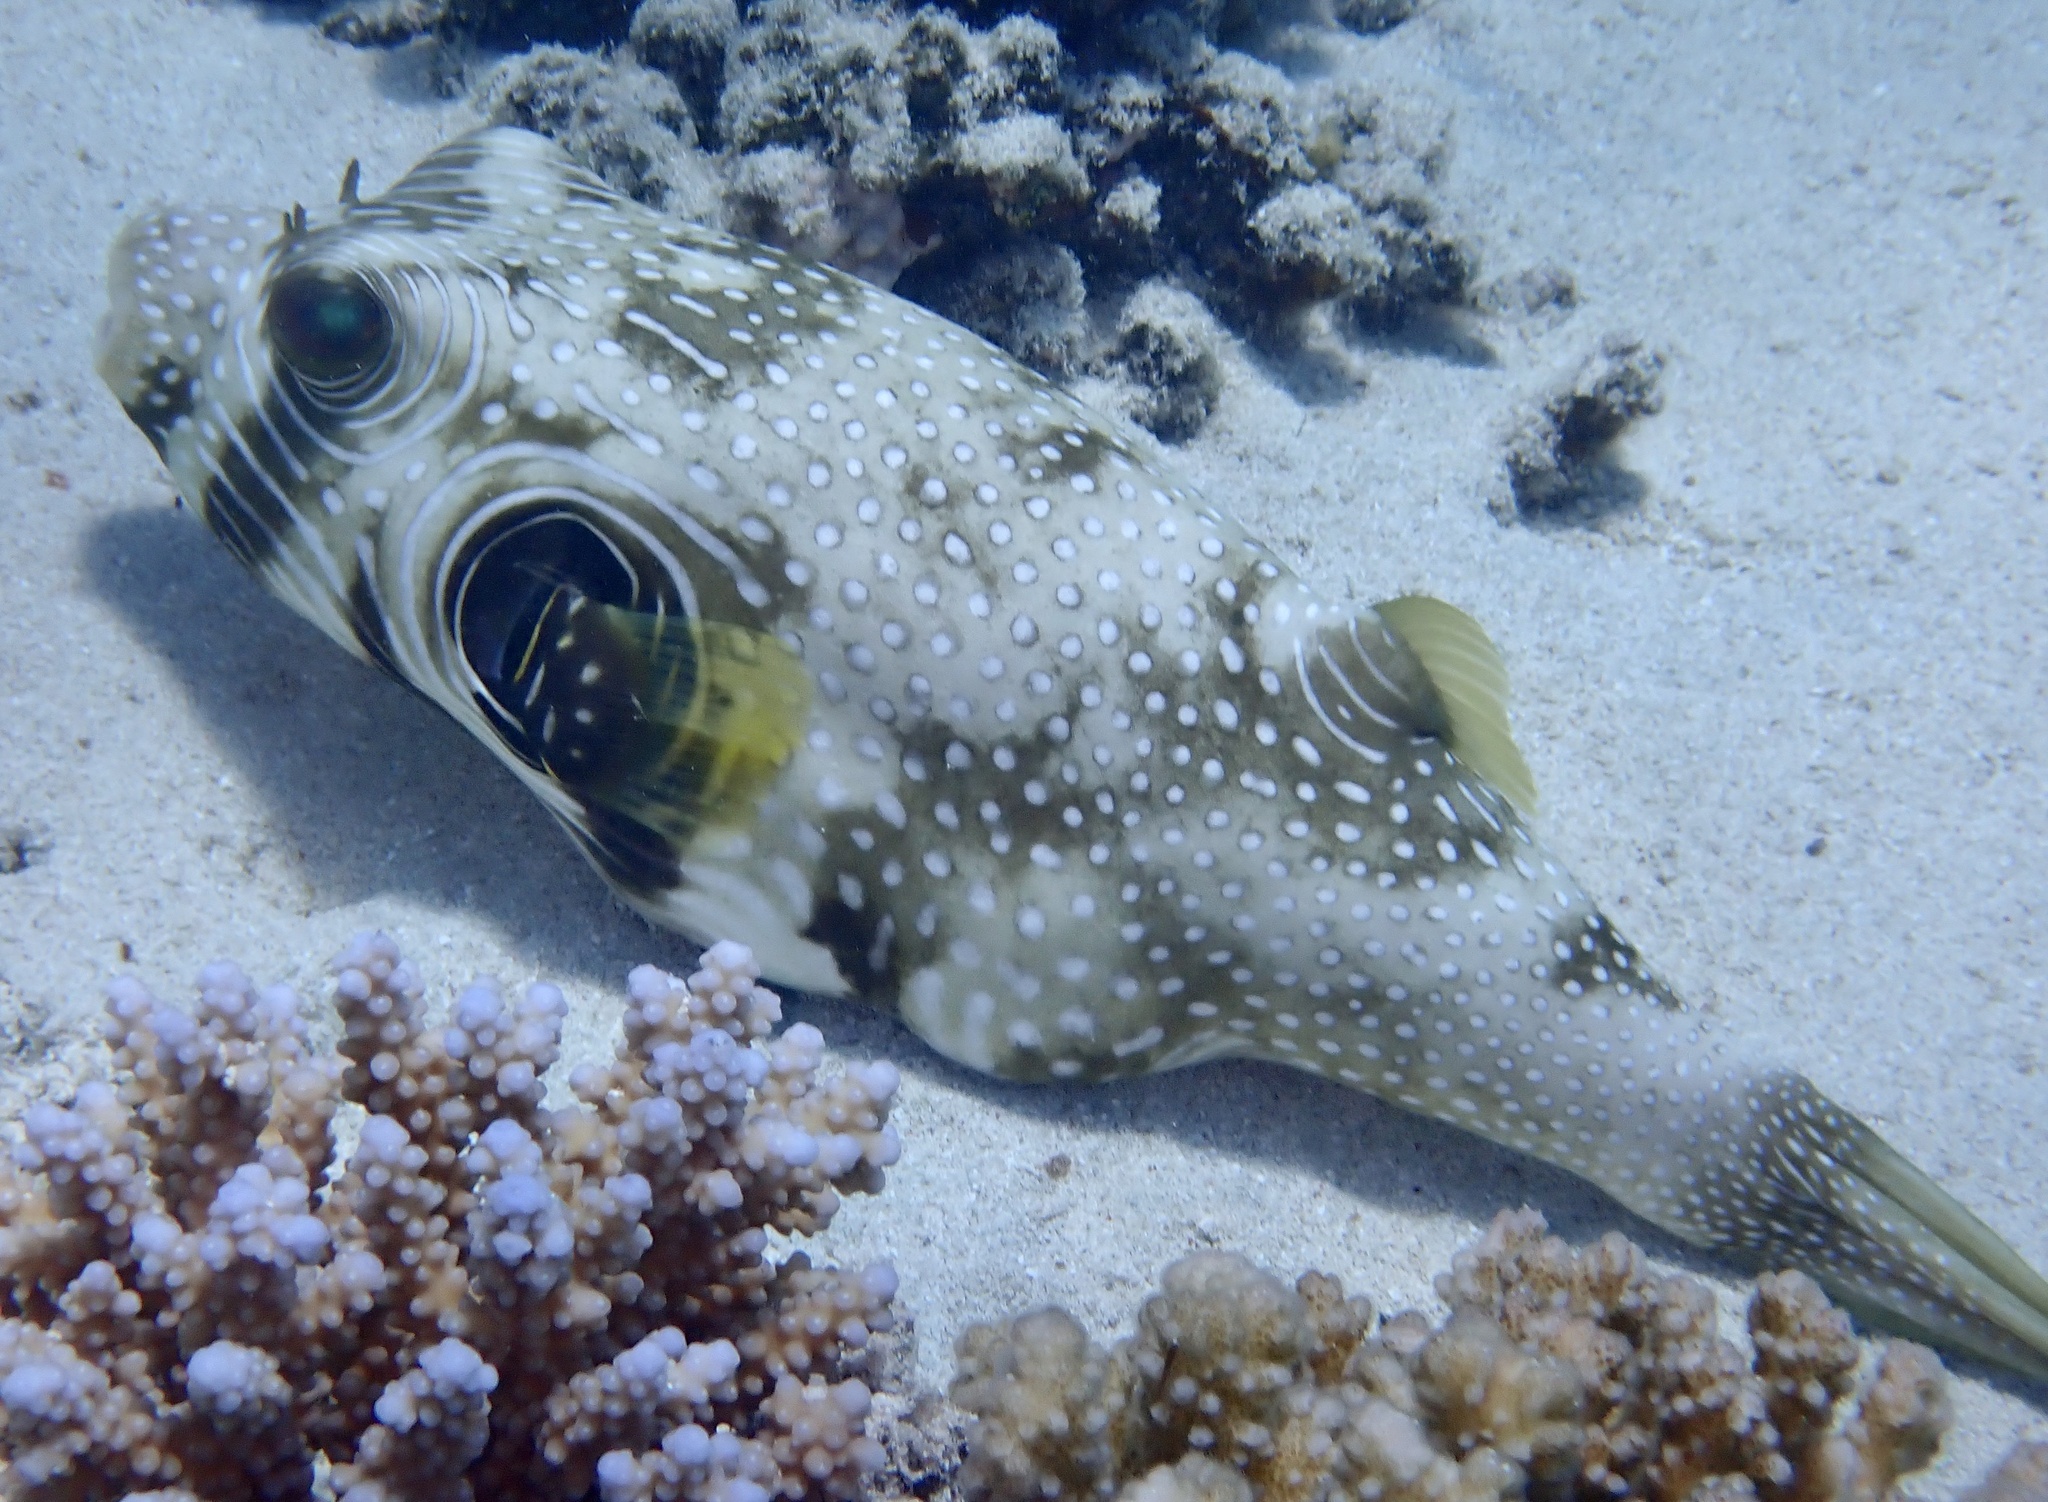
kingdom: Animalia
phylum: Chordata
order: Tetraodontiformes
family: Tetraodontidae
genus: Arothron
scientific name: Arothron hispidus
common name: Stripebelly puffer
